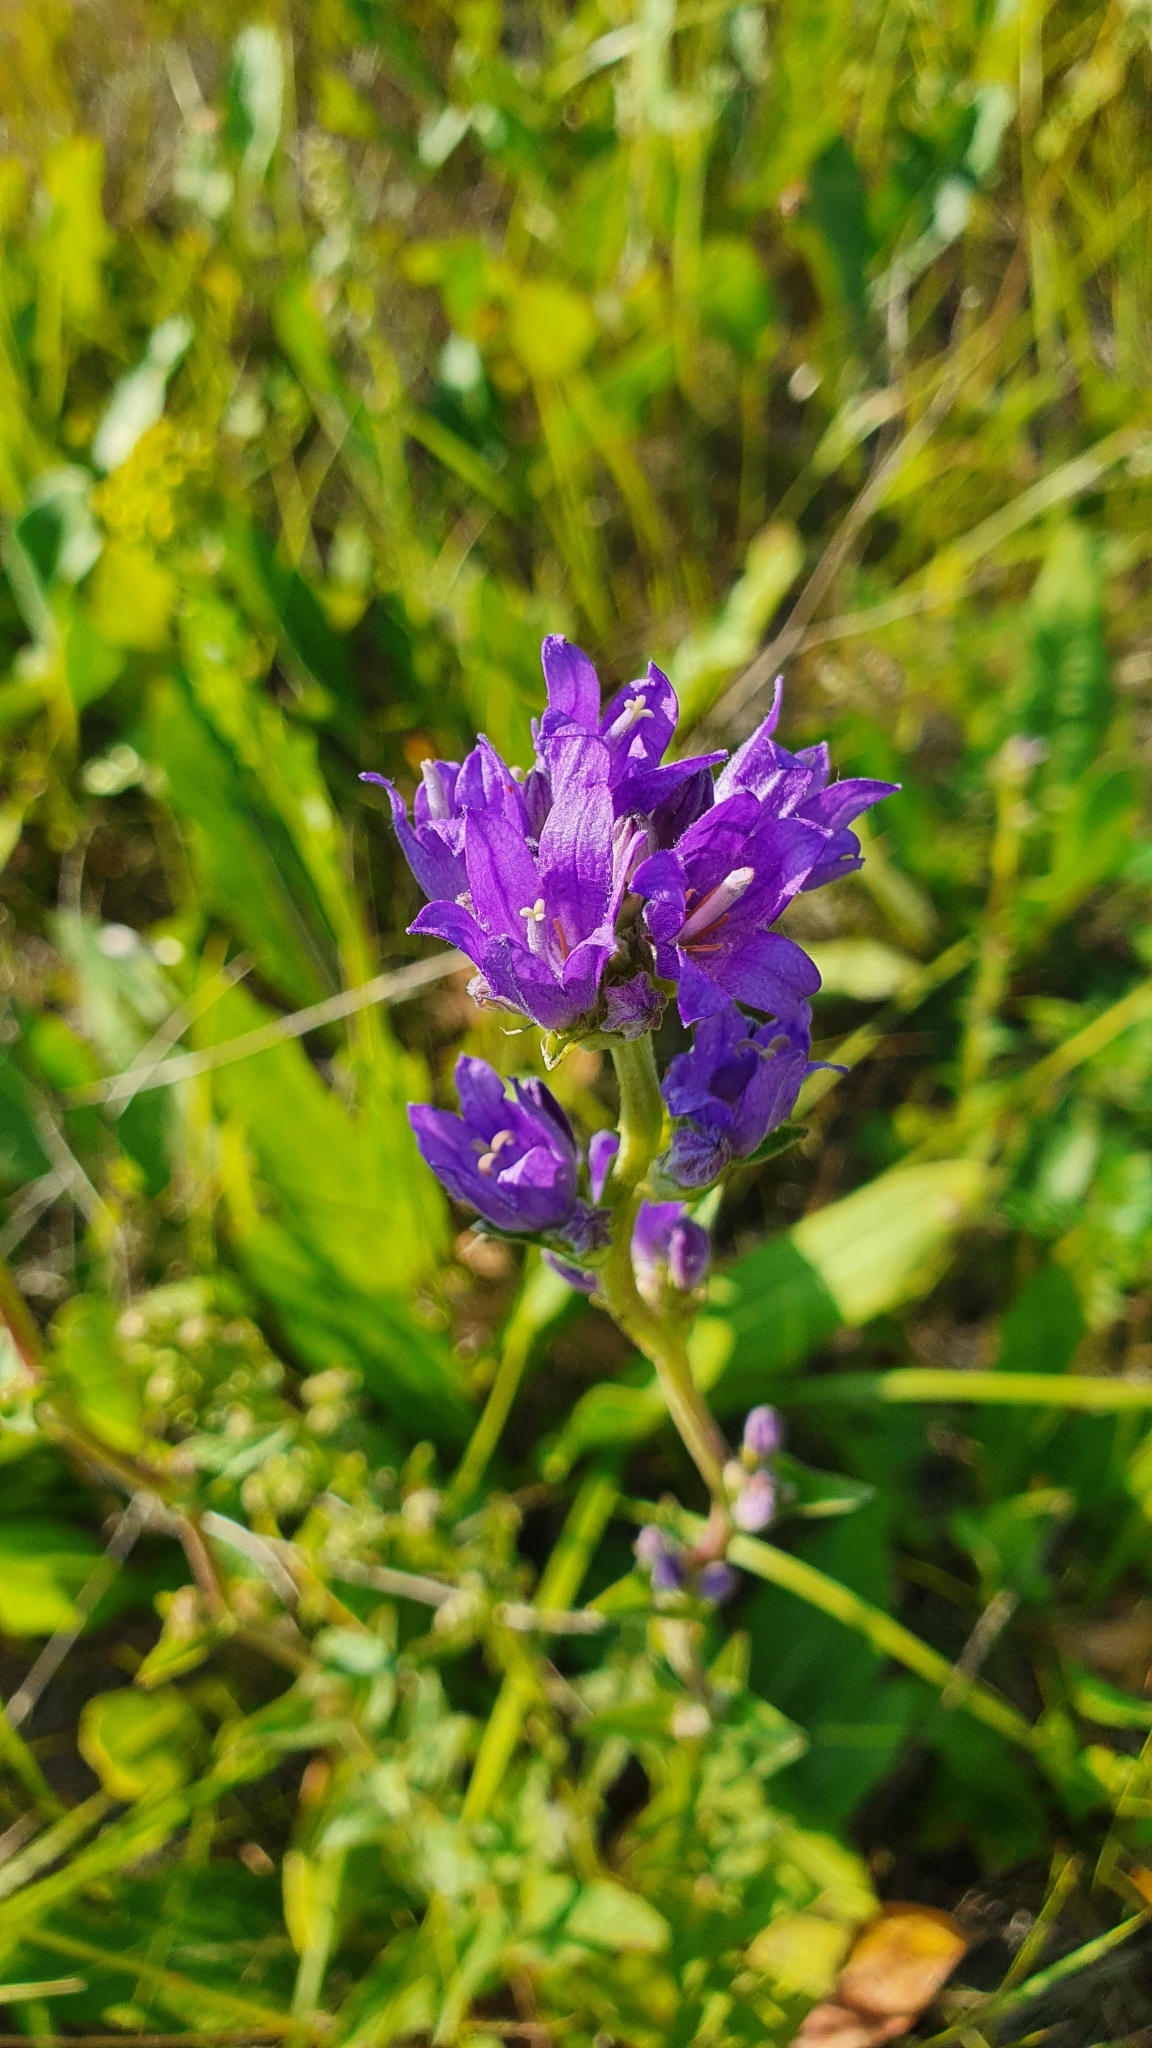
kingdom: Plantae
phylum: Tracheophyta
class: Magnoliopsida
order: Asterales
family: Campanulaceae
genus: Campanula
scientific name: Campanula glomerata
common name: Clustered bellflower
